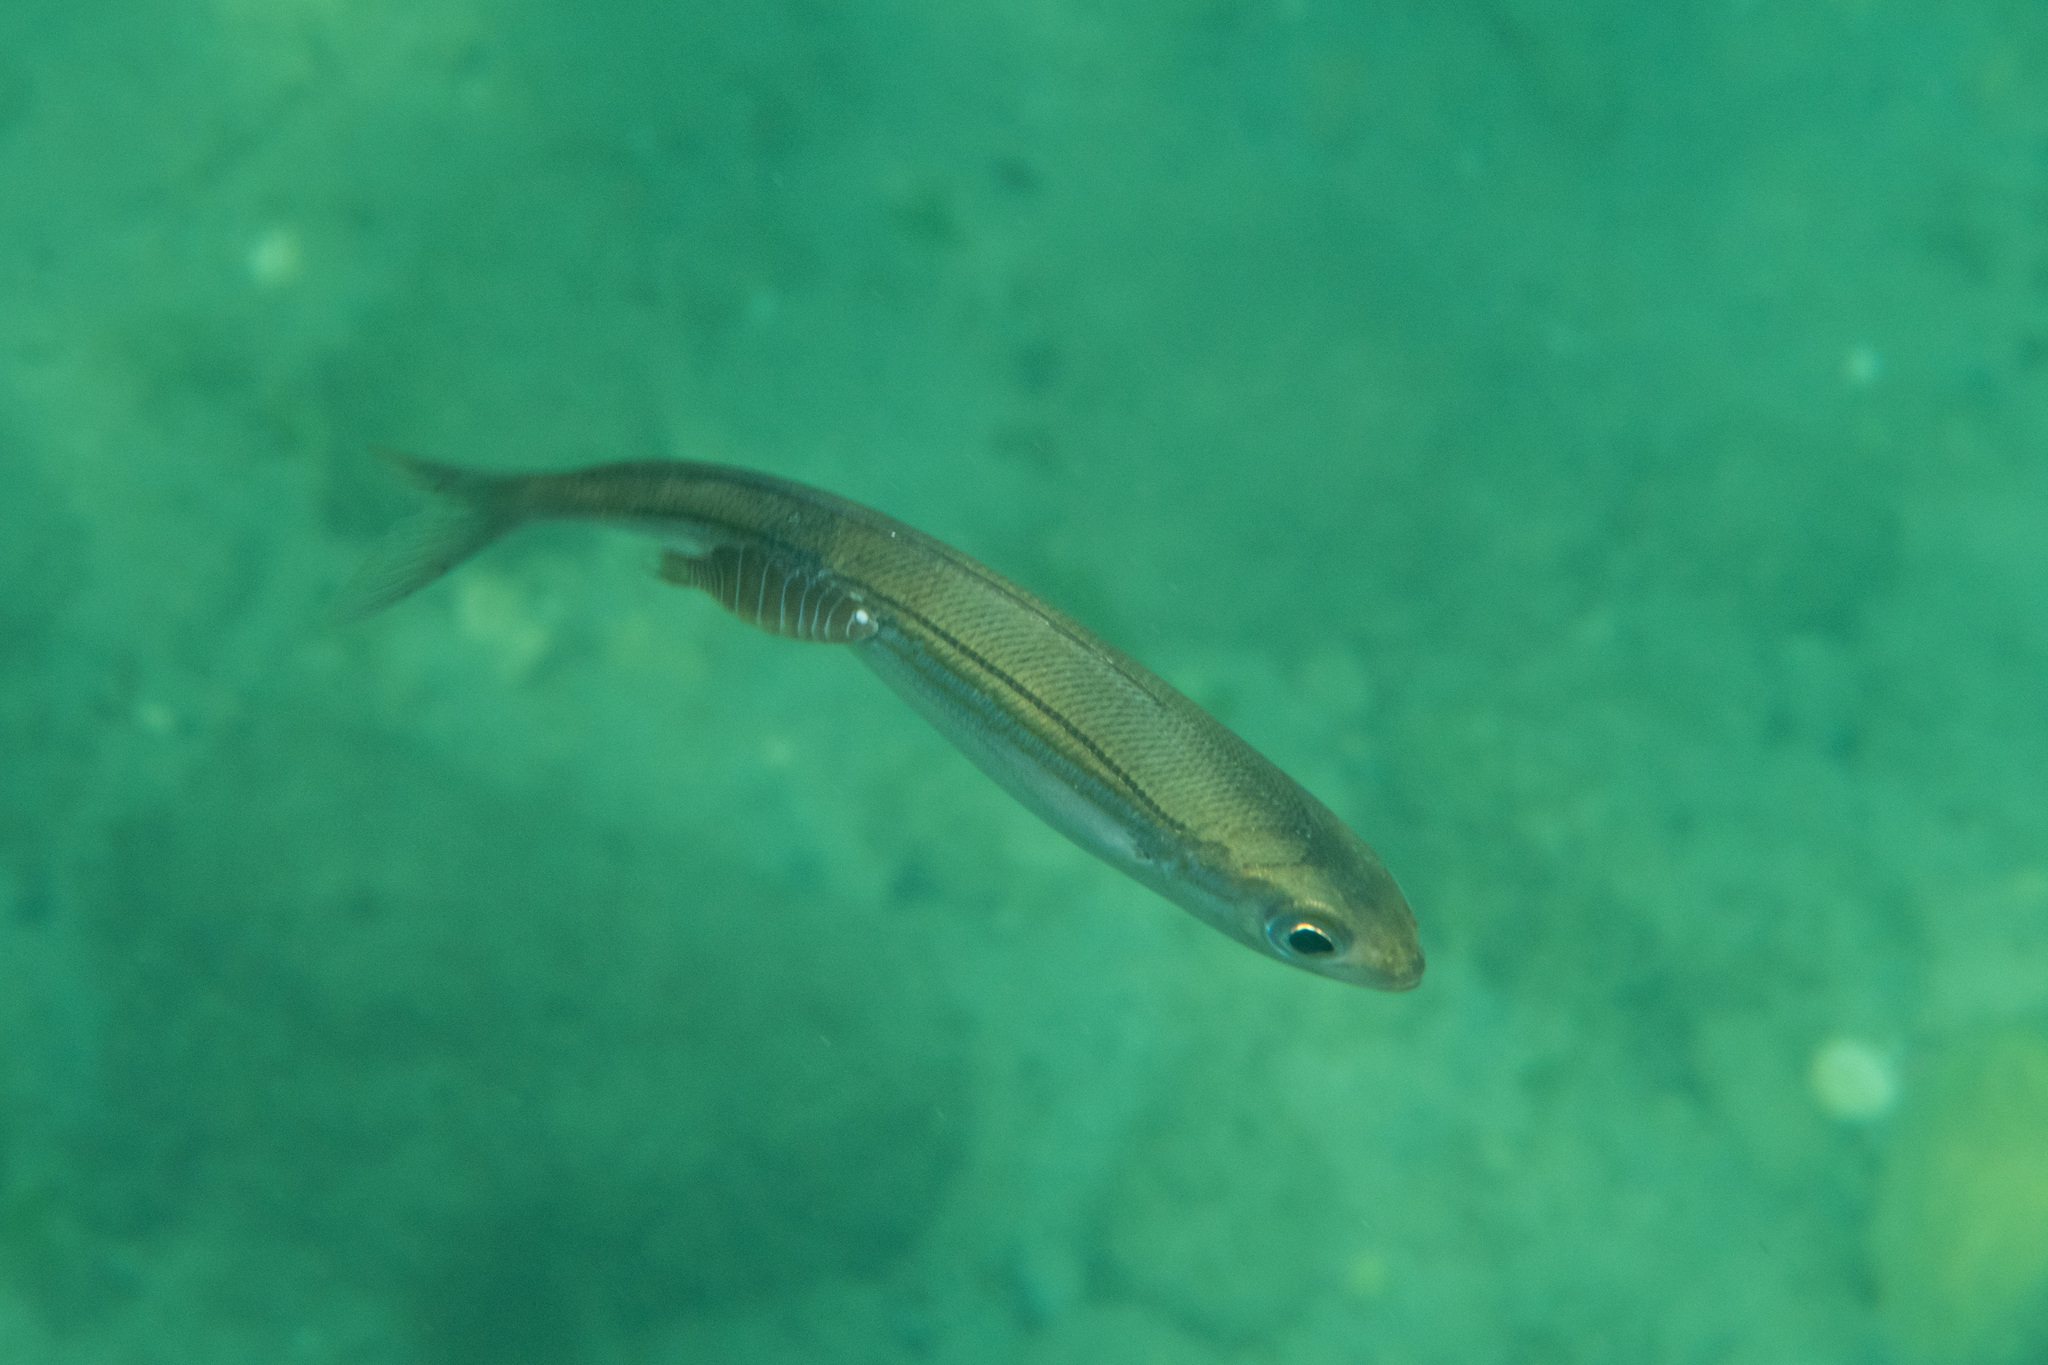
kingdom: Animalia
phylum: Chordata
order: Perciformes
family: Sparidae
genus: Boops
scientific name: Boops boops
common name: Bogue
